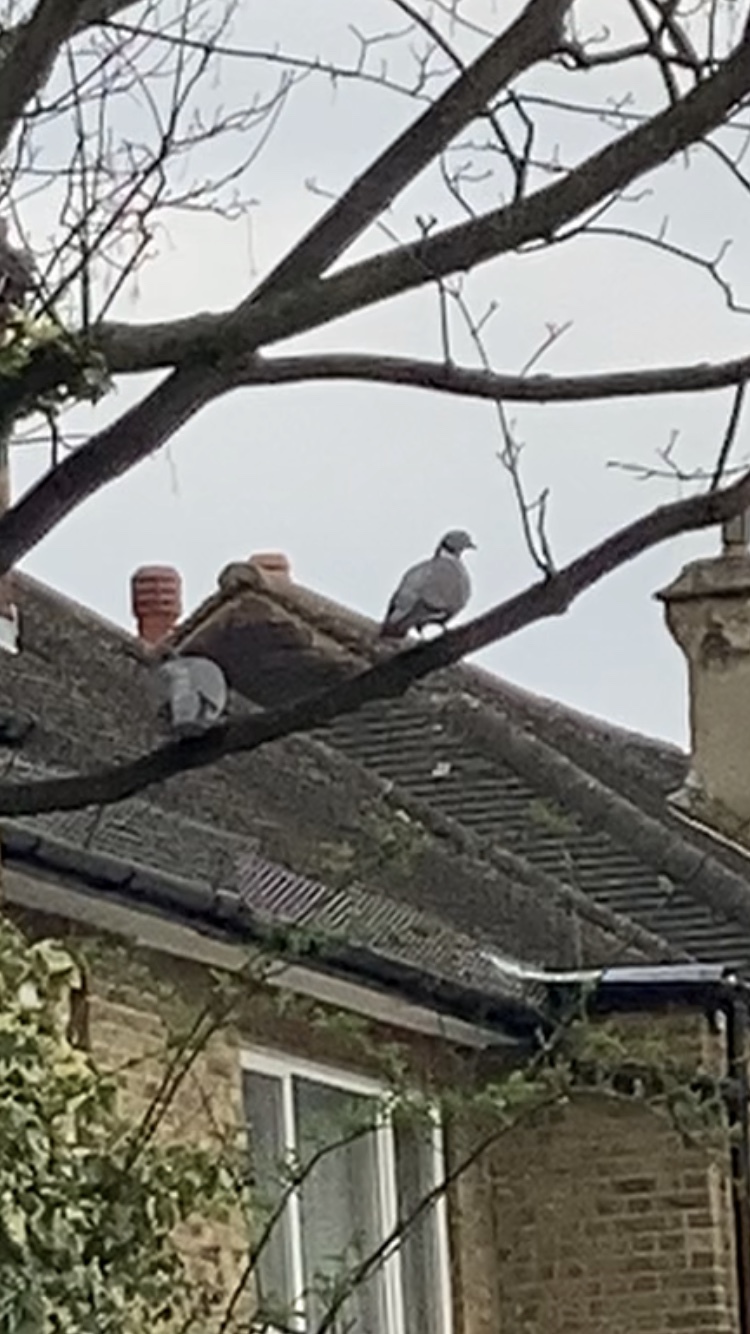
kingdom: Animalia
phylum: Chordata
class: Aves
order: Columbiformes
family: Columbidae
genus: Columba
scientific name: Columba palumbus
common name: Common wood pigeon
